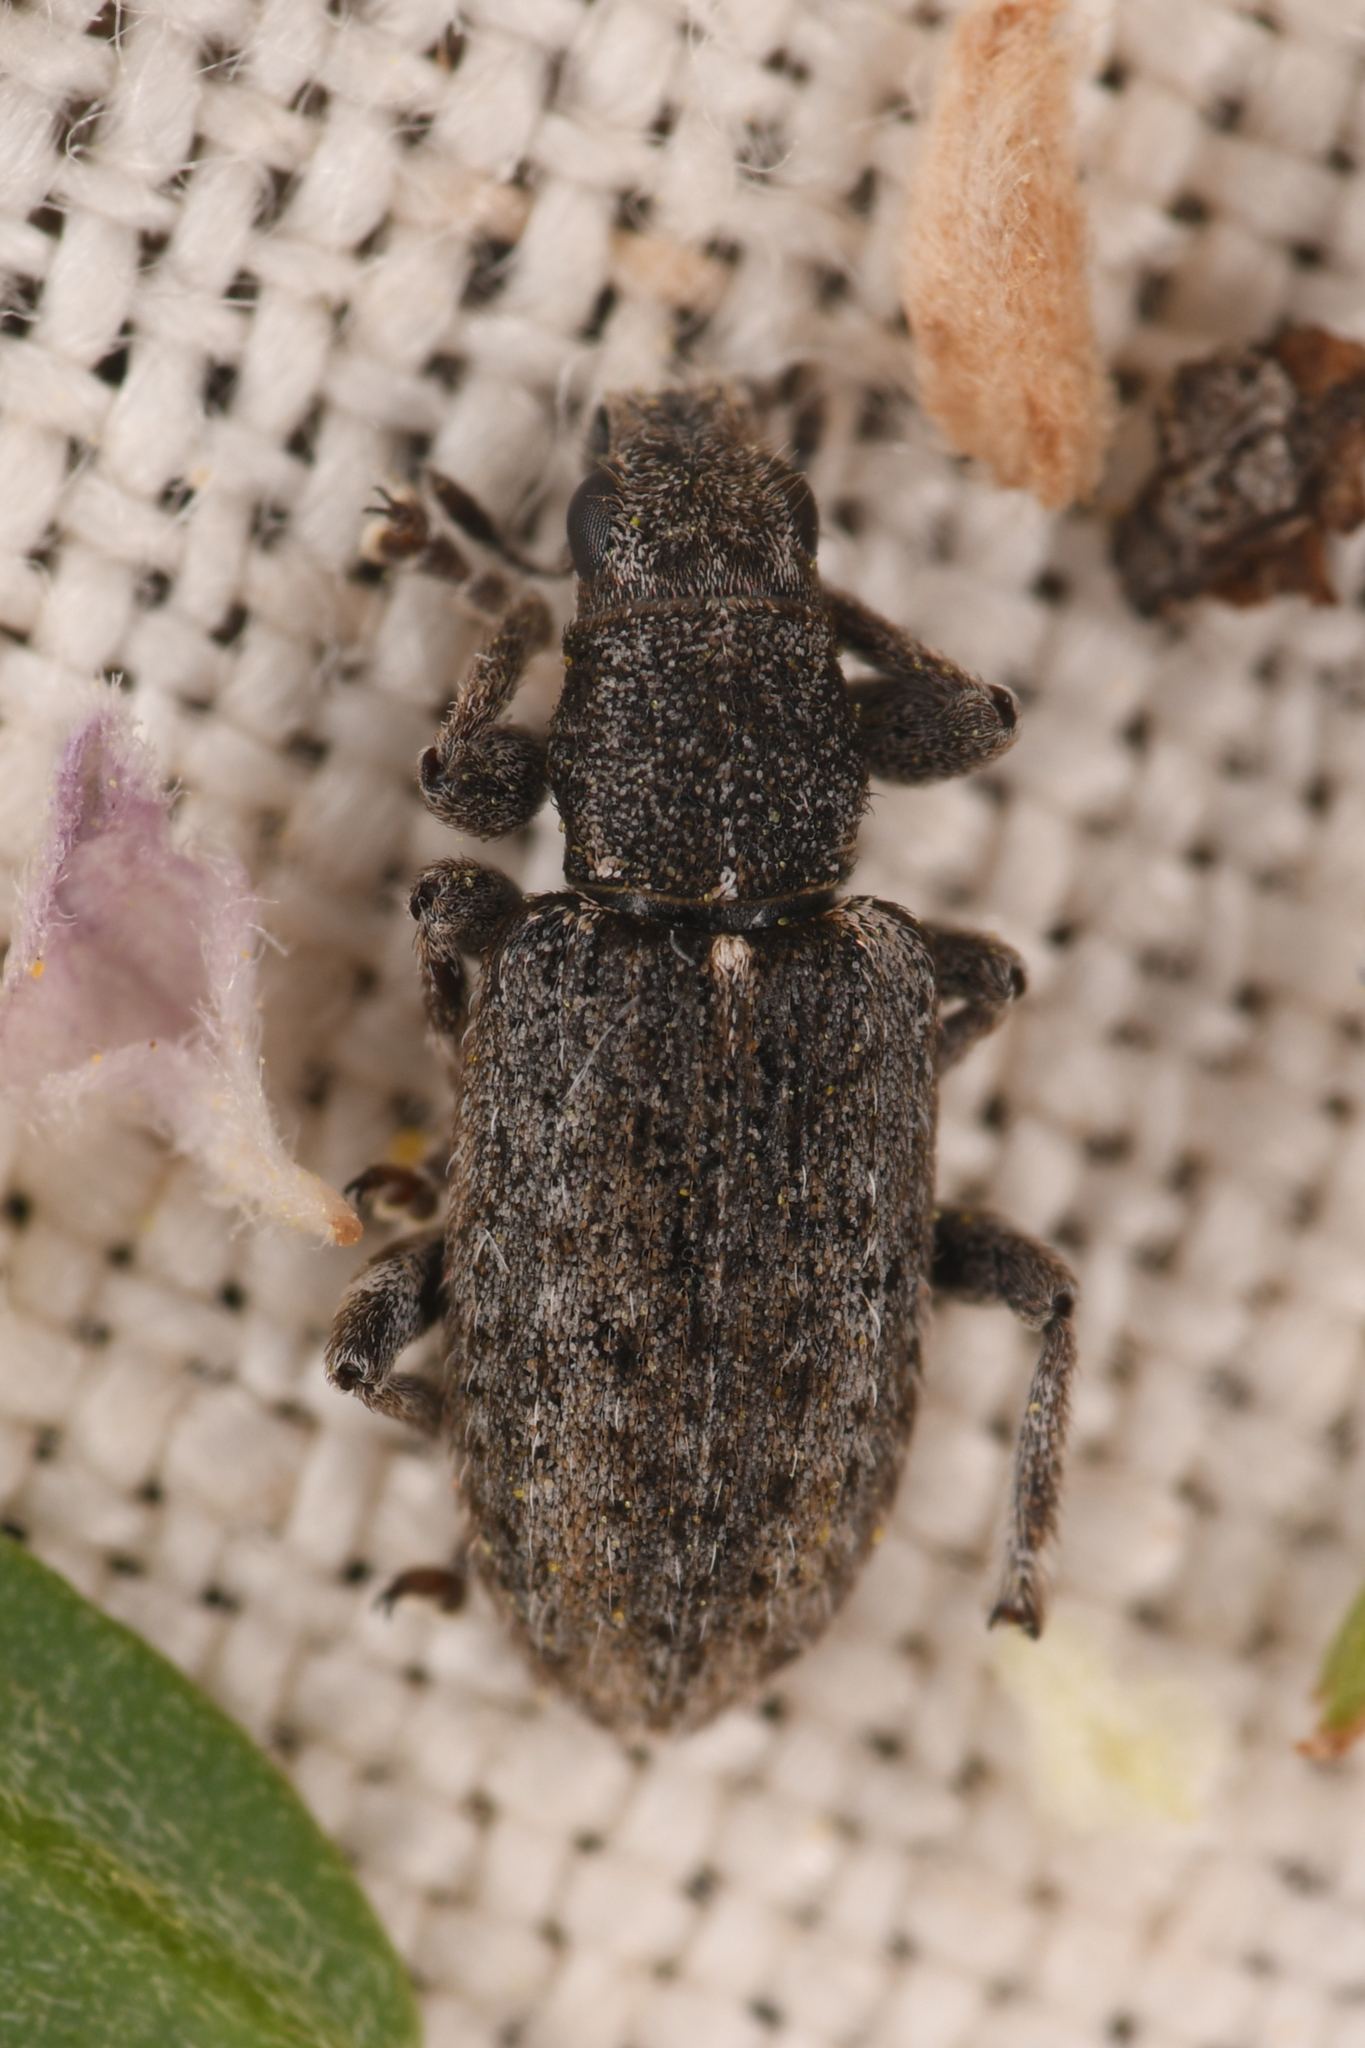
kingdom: Animalia
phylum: Arthropoda
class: Insecta
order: Coleoptera
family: Curculionidae
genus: Sitones
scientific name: Sitones californius
